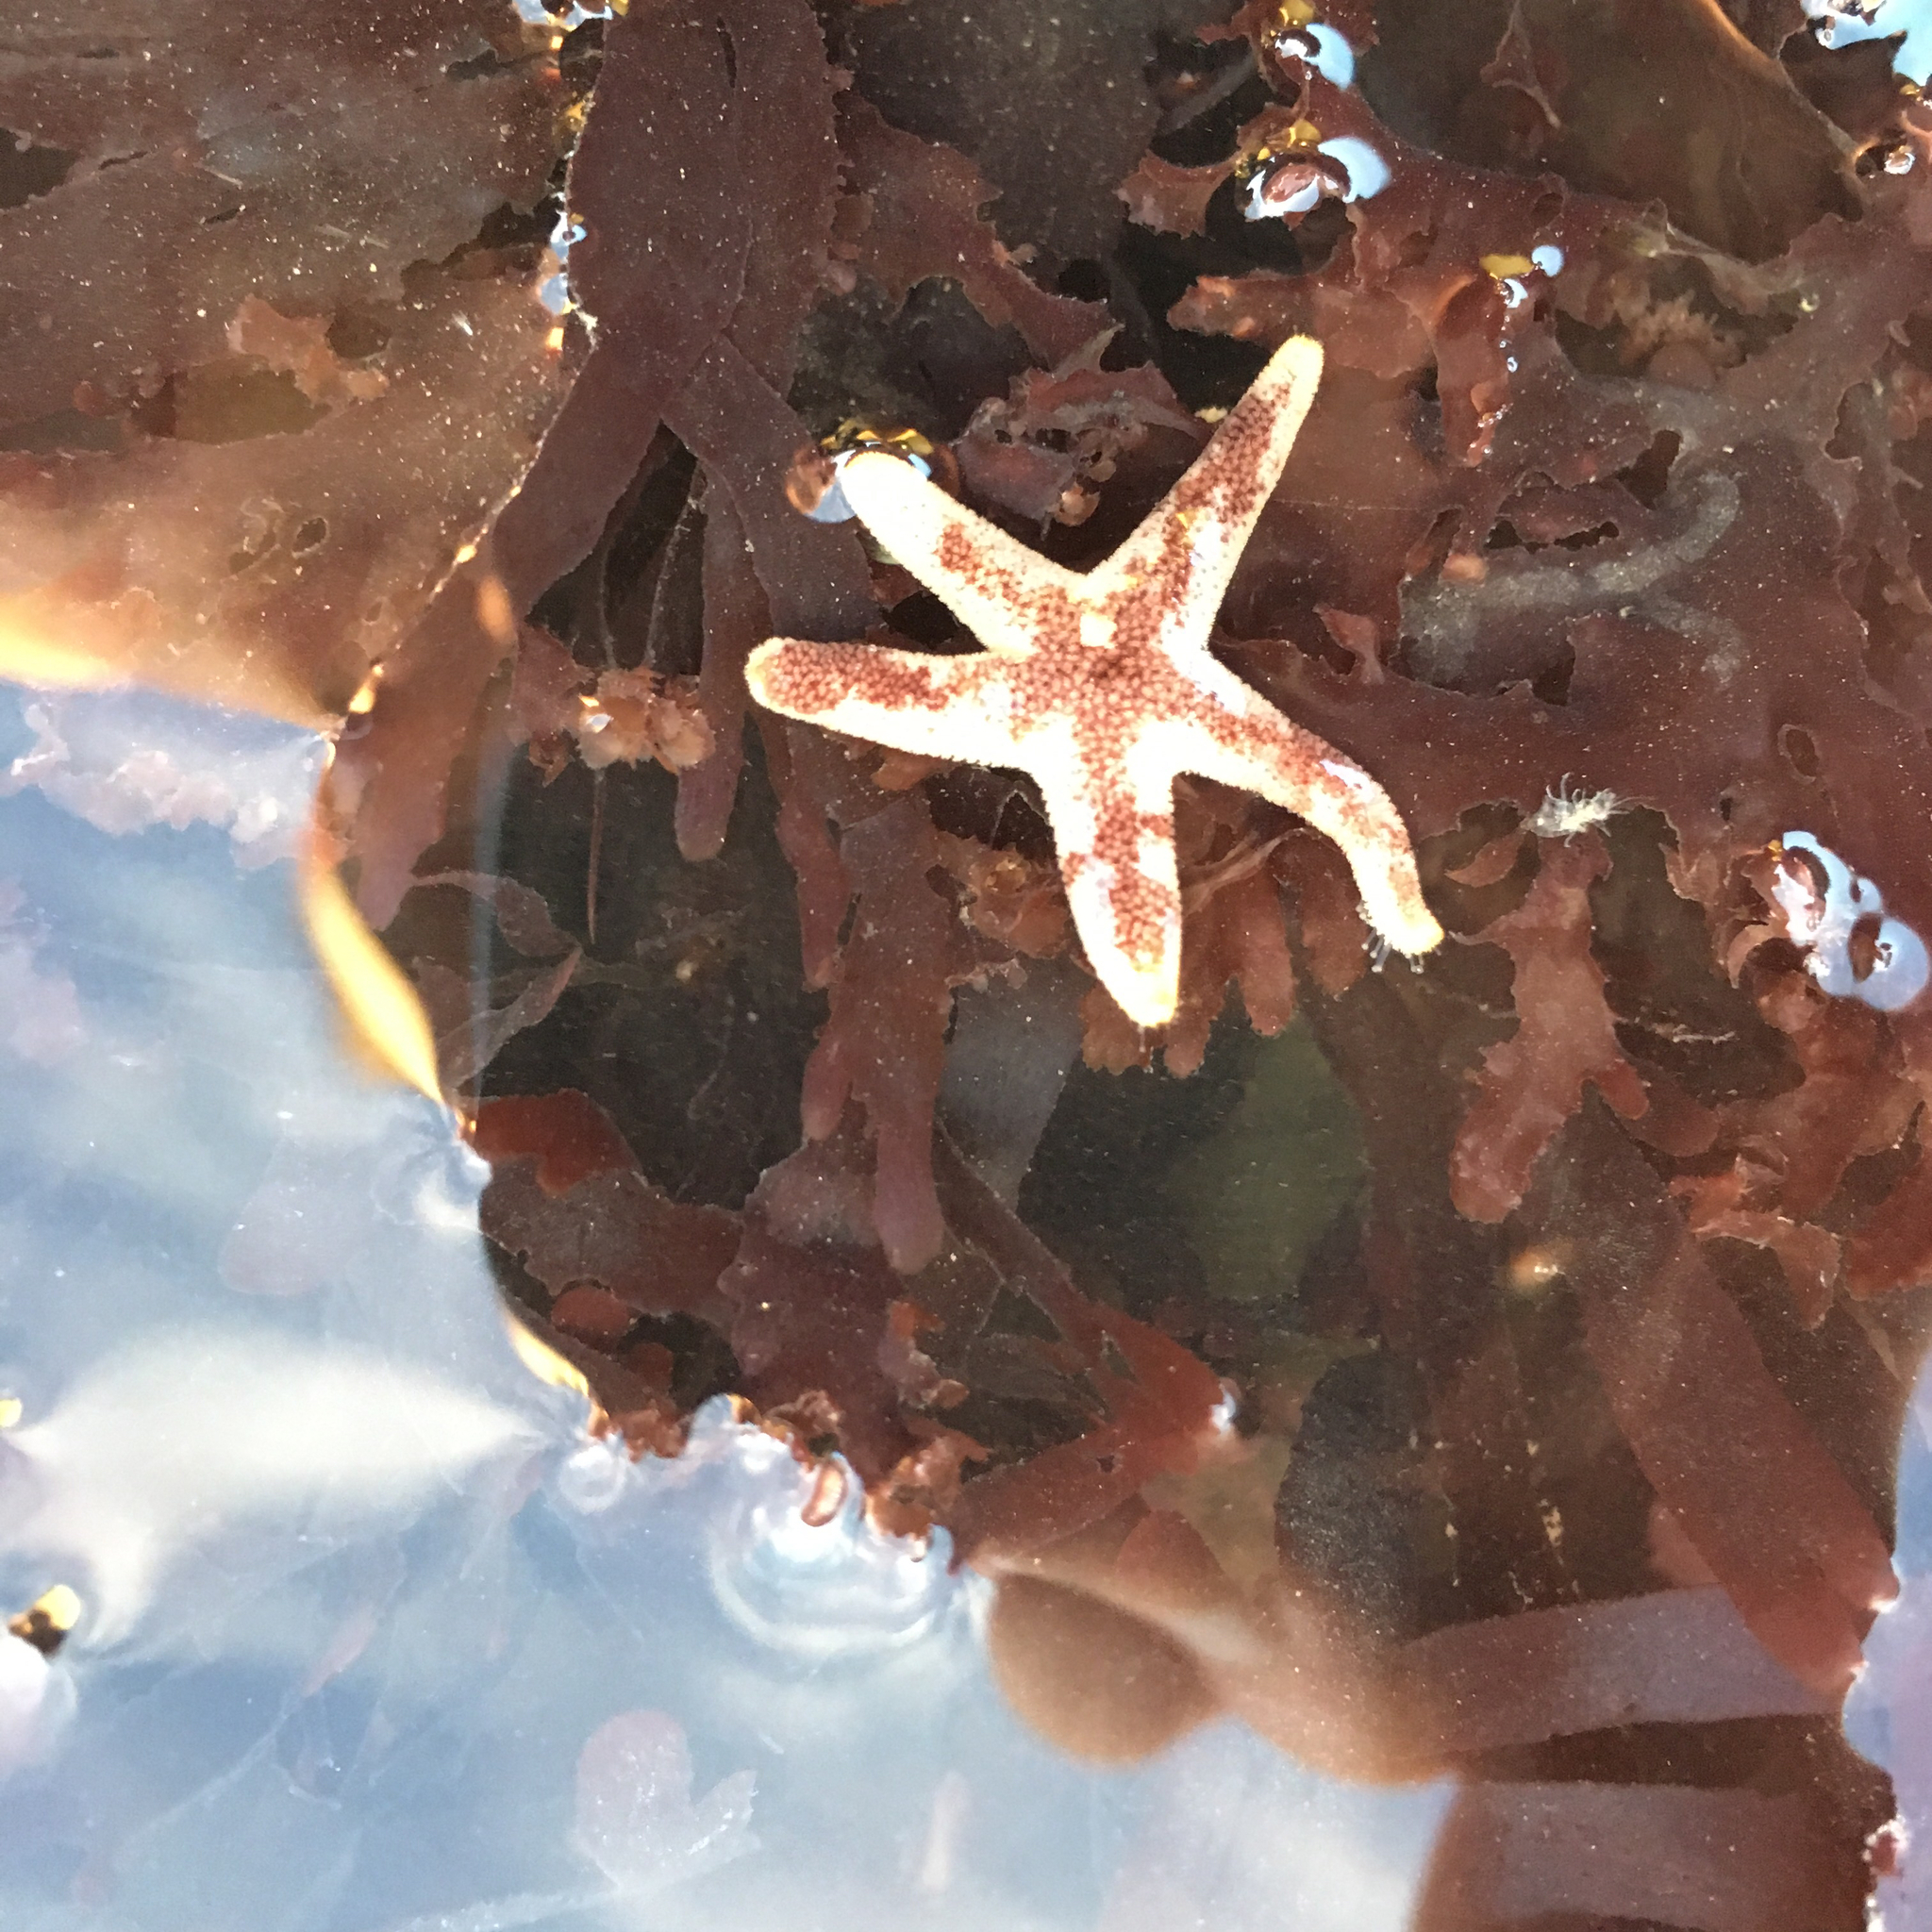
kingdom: Animalia
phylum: Echinodermata
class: Asteroidea
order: Spinulosida
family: Echinasteridae
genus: Henricia
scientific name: Henricia pumila
